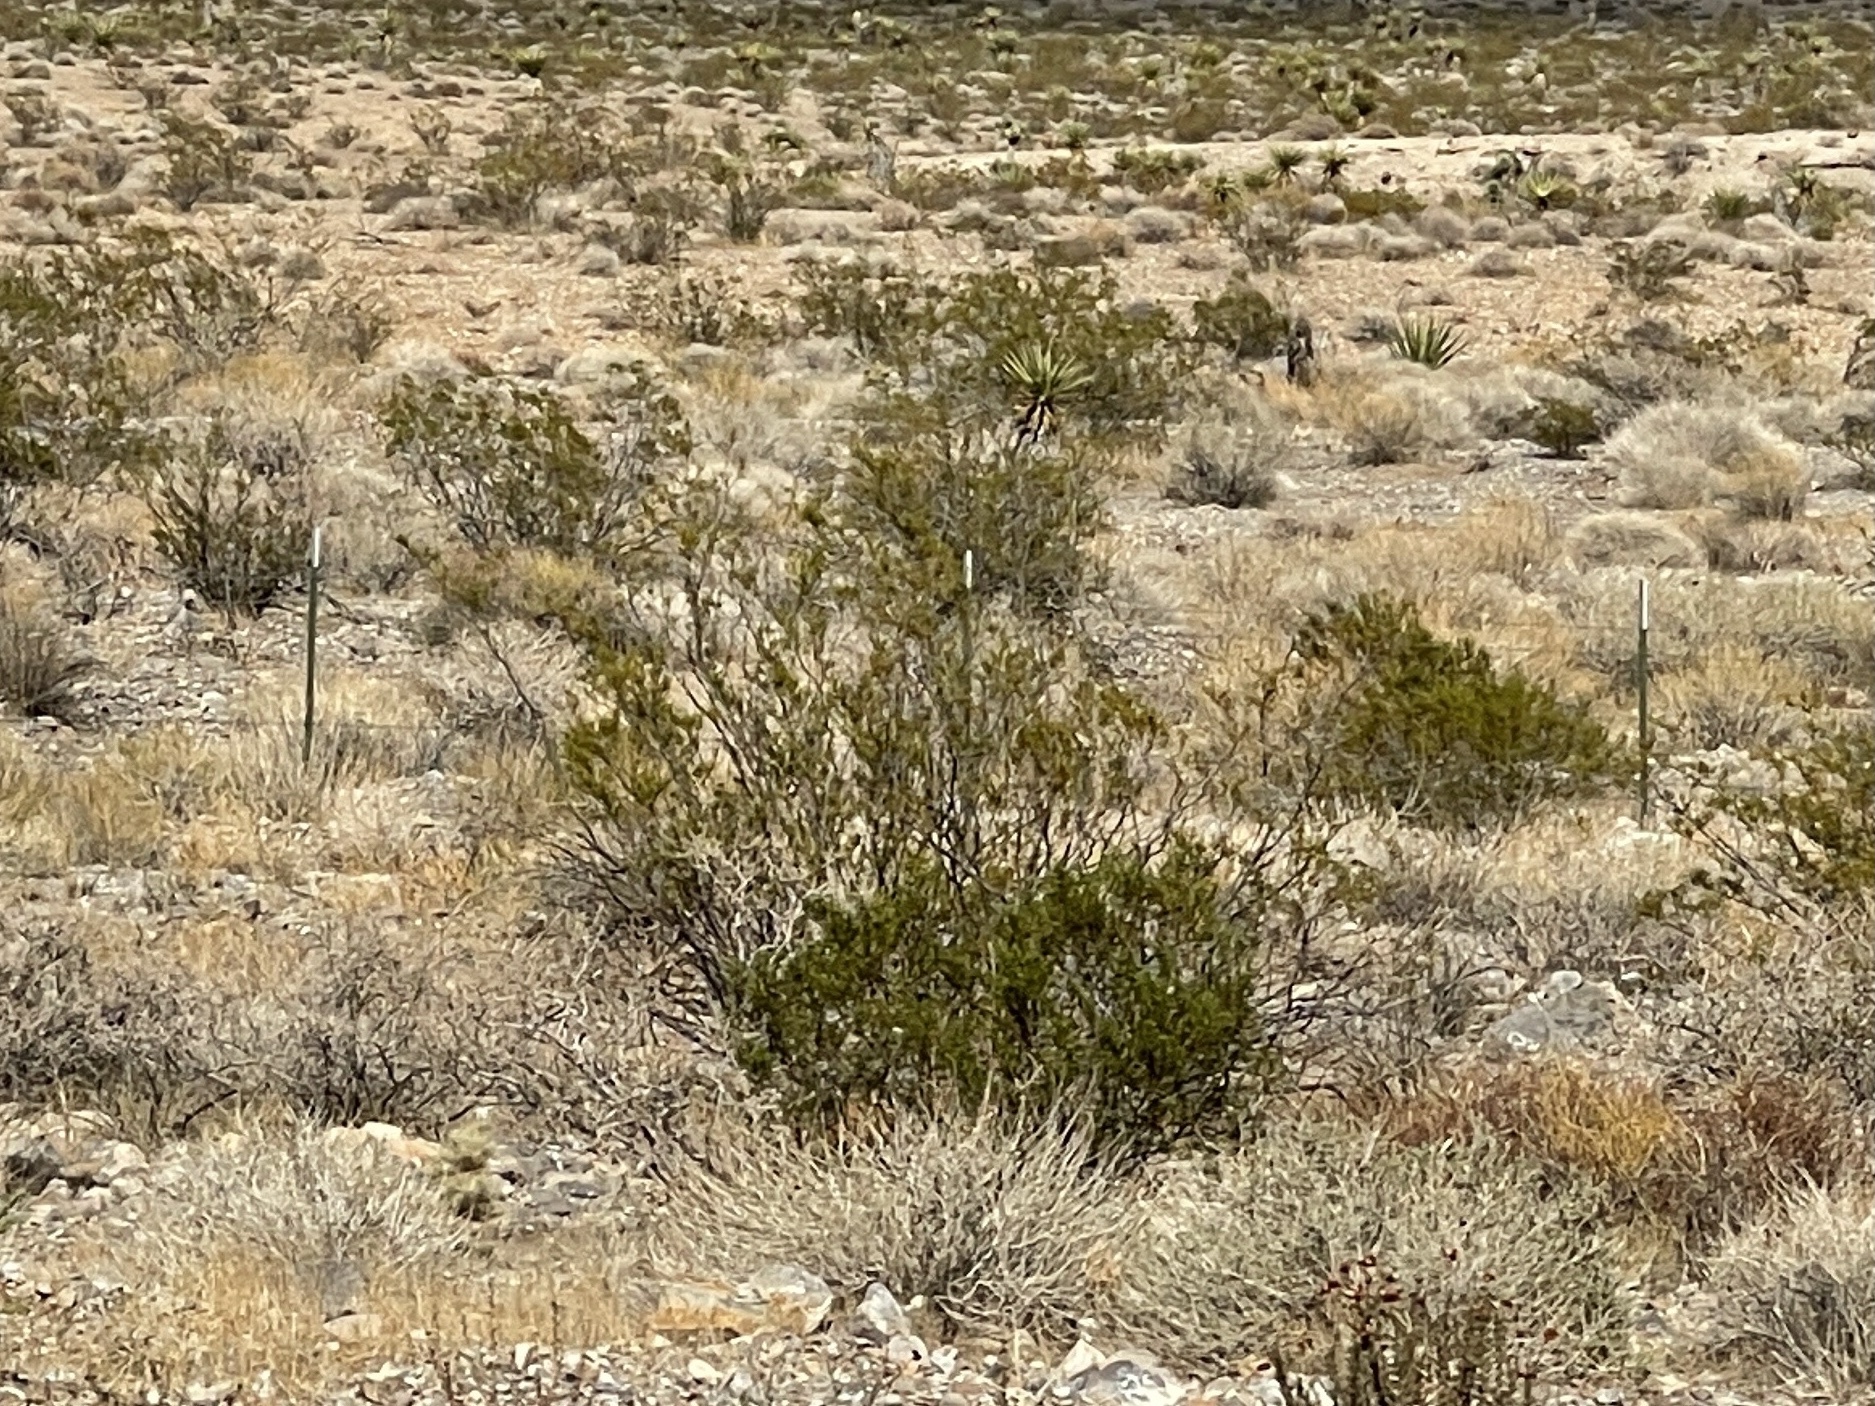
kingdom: Plantae
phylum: Tracheophyta
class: Magnoliopsida
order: Zygophyllales
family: Zygophyllaceae
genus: Larrea
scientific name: Larrea tridentata
